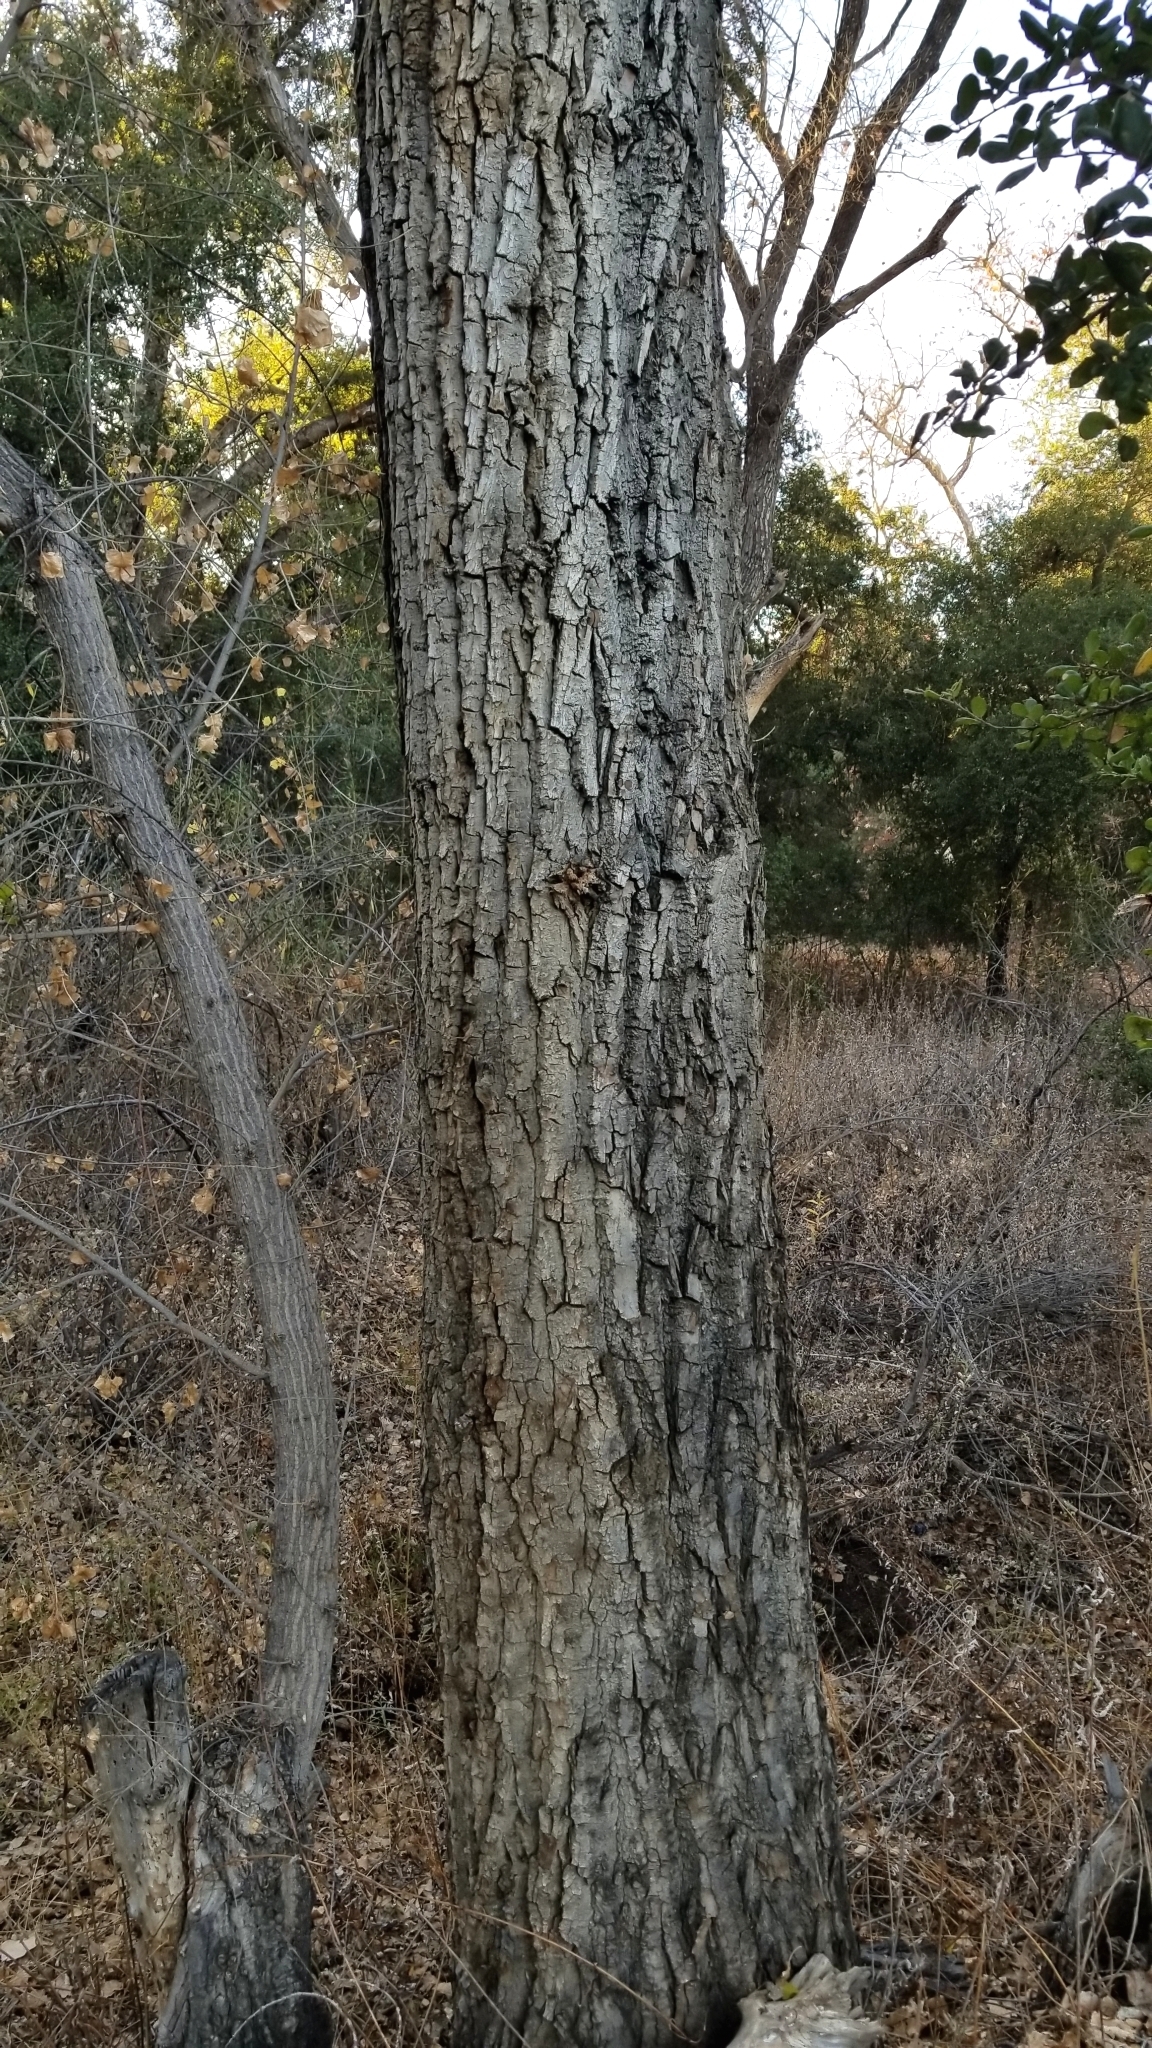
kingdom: Plantae
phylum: Tracheophyta
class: Magnoliopsida
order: Malpighiales
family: Salicaceae
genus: Populus
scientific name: Populus fremontii
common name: Fremont's cottonwood
